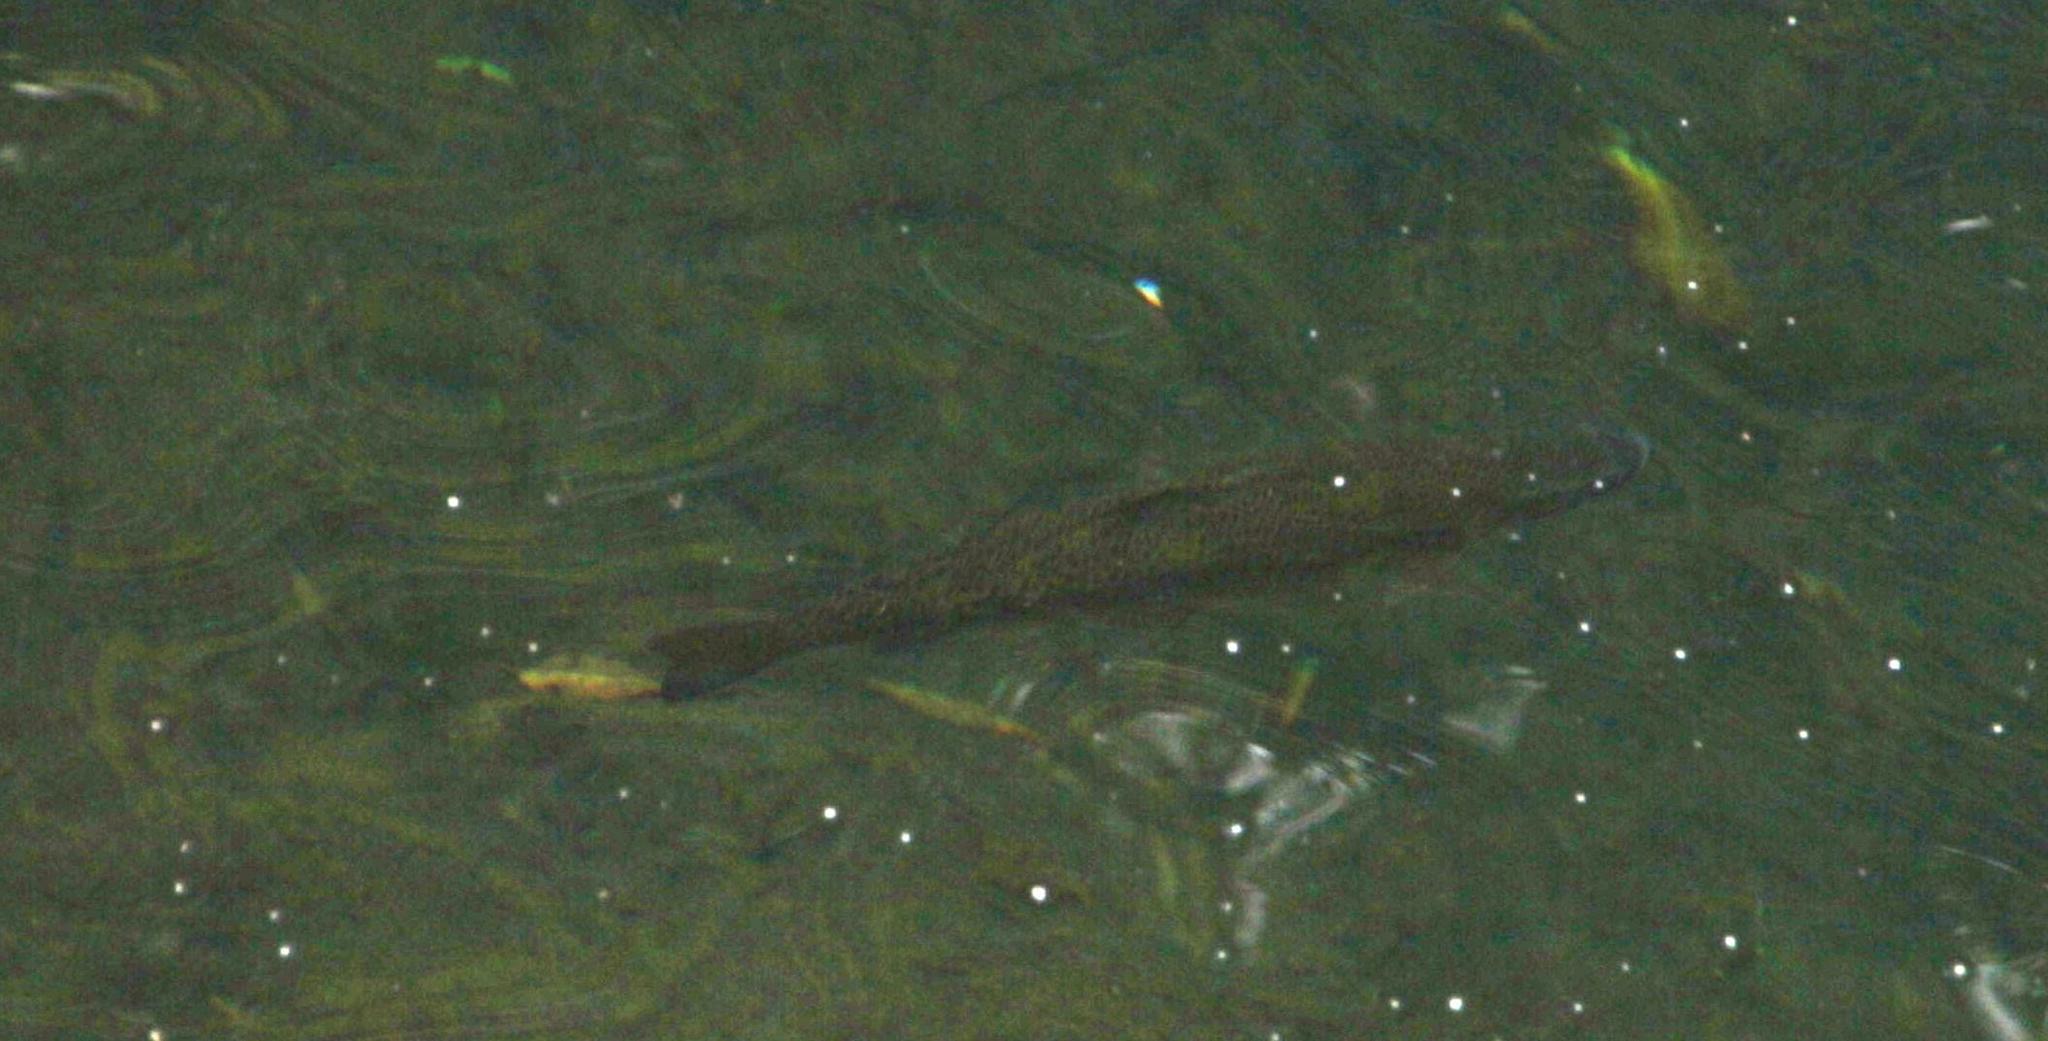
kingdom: Animalia
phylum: Chordata
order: Salmoniformes
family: Salmonidae
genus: Oncorhynchus
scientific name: Oncorhynchus mykiss
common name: Rainbow trout
